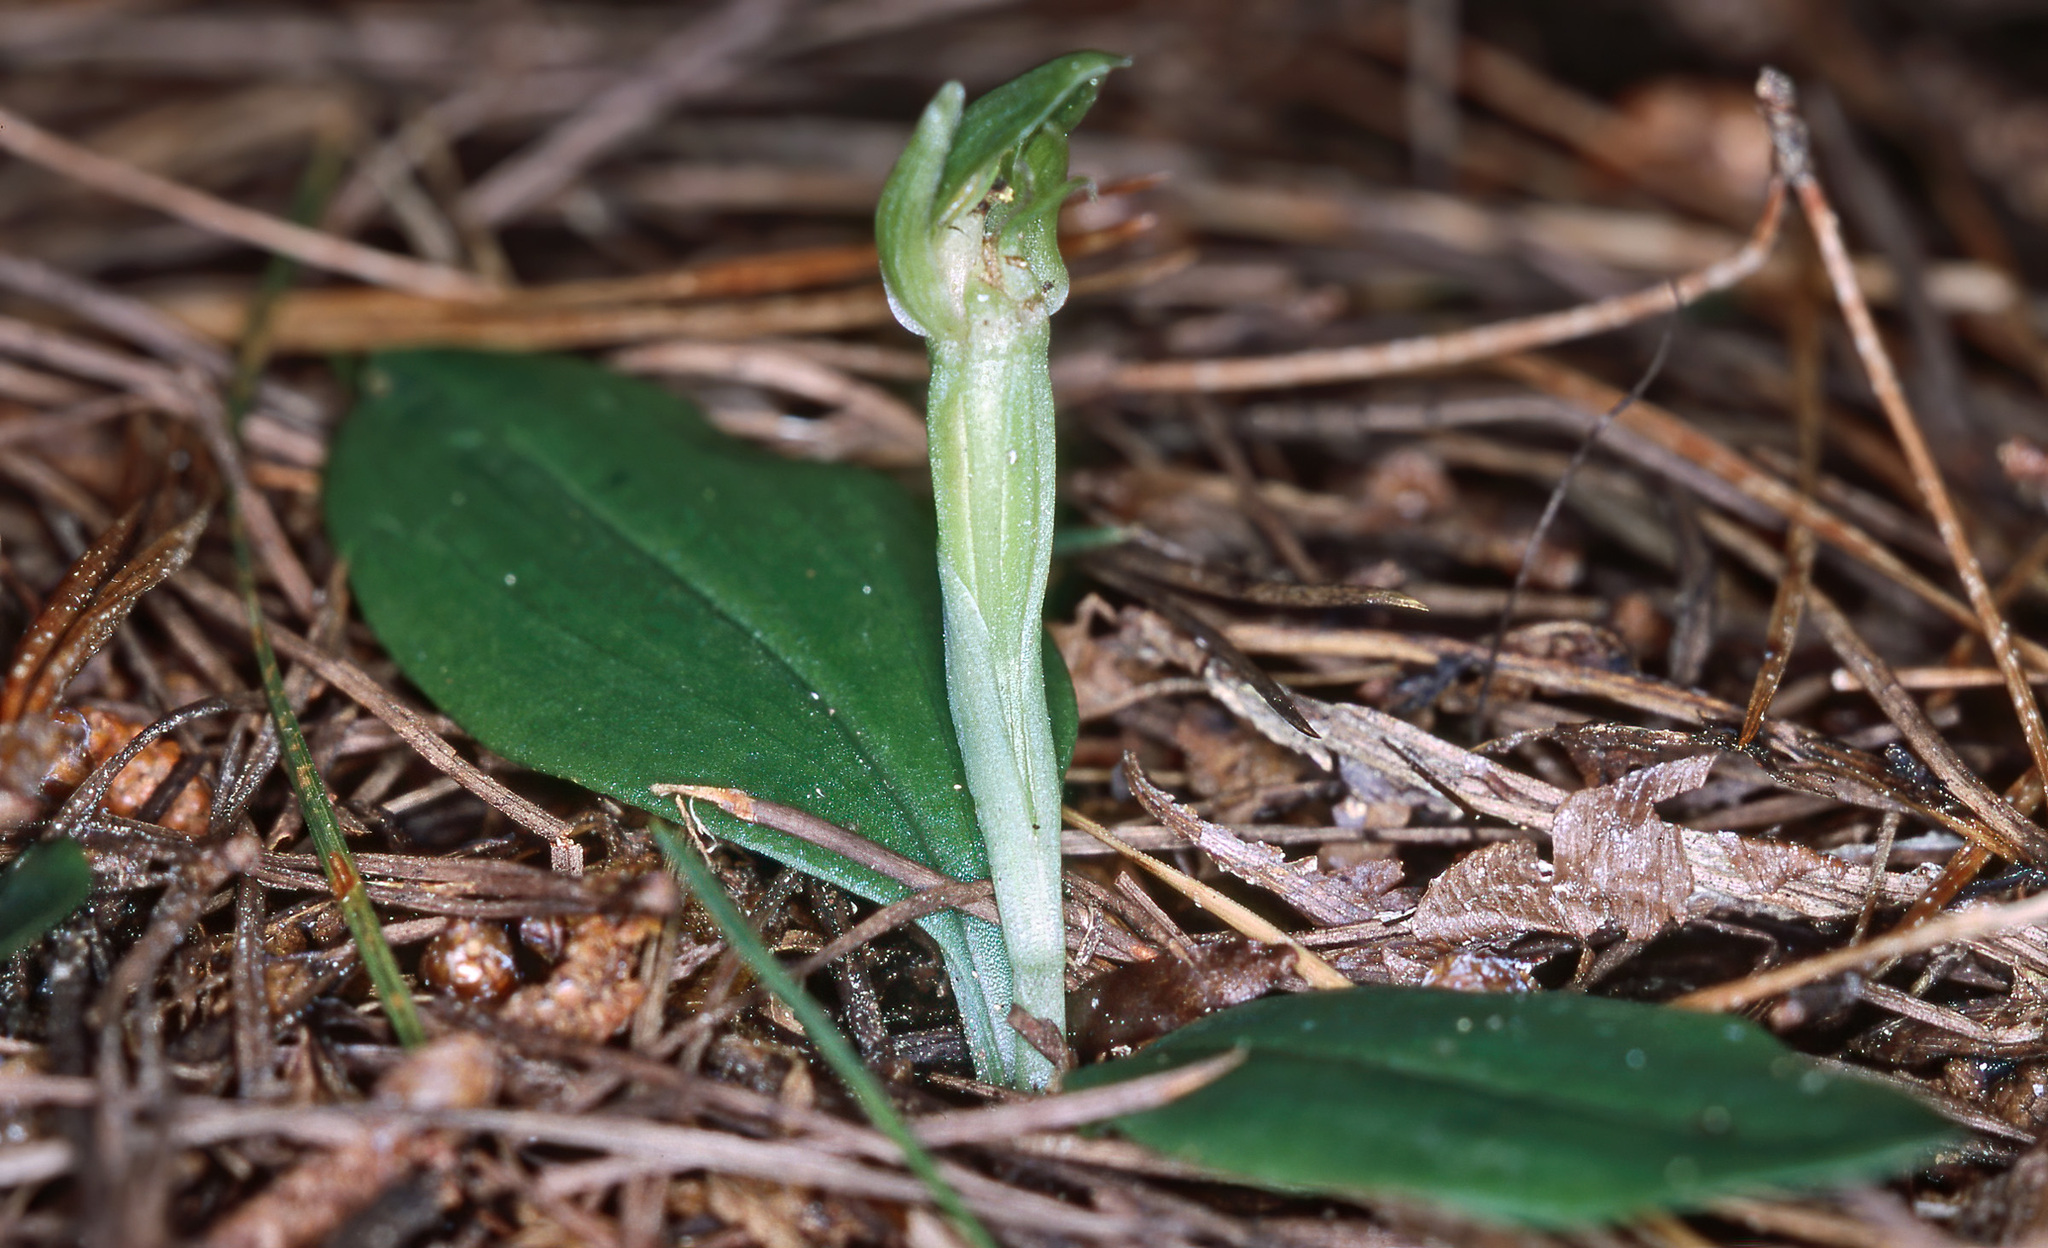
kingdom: Plantae
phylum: Tracheophyta
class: Liliopsida
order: Asparagales
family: Orchidaceae
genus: Chiloglottis
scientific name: Chiloglottis cornuta
